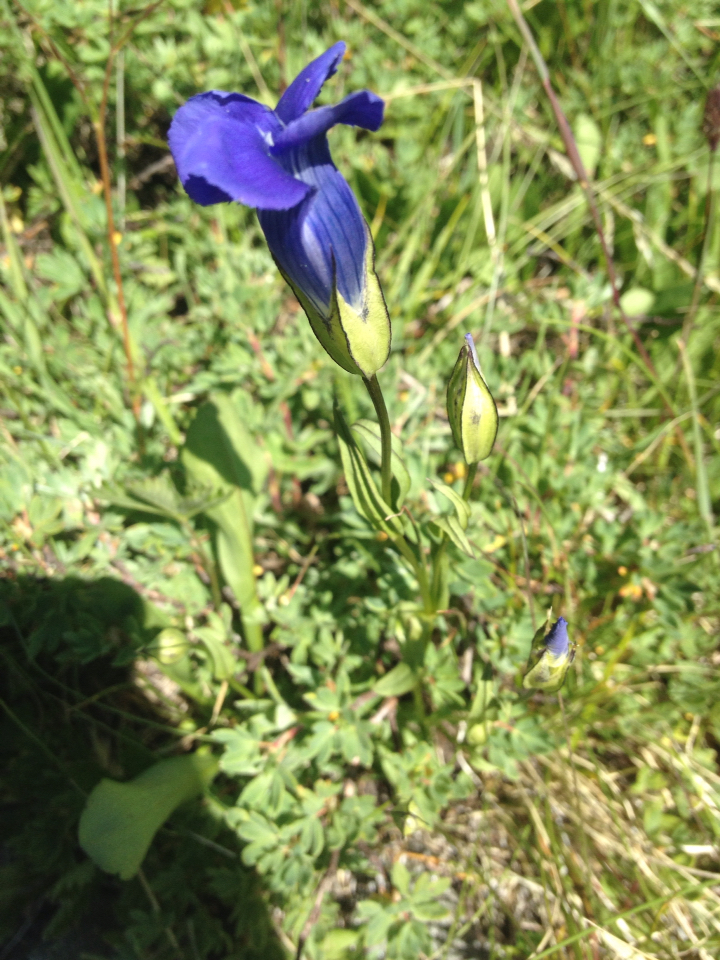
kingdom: Plantae
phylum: Tracheophyta
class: Magnoliopsida
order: Gentianales
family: Gentianaceae
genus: Gentianopsis
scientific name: Gentianopsis thermalis
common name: Rocky mountain fringed-gentian
